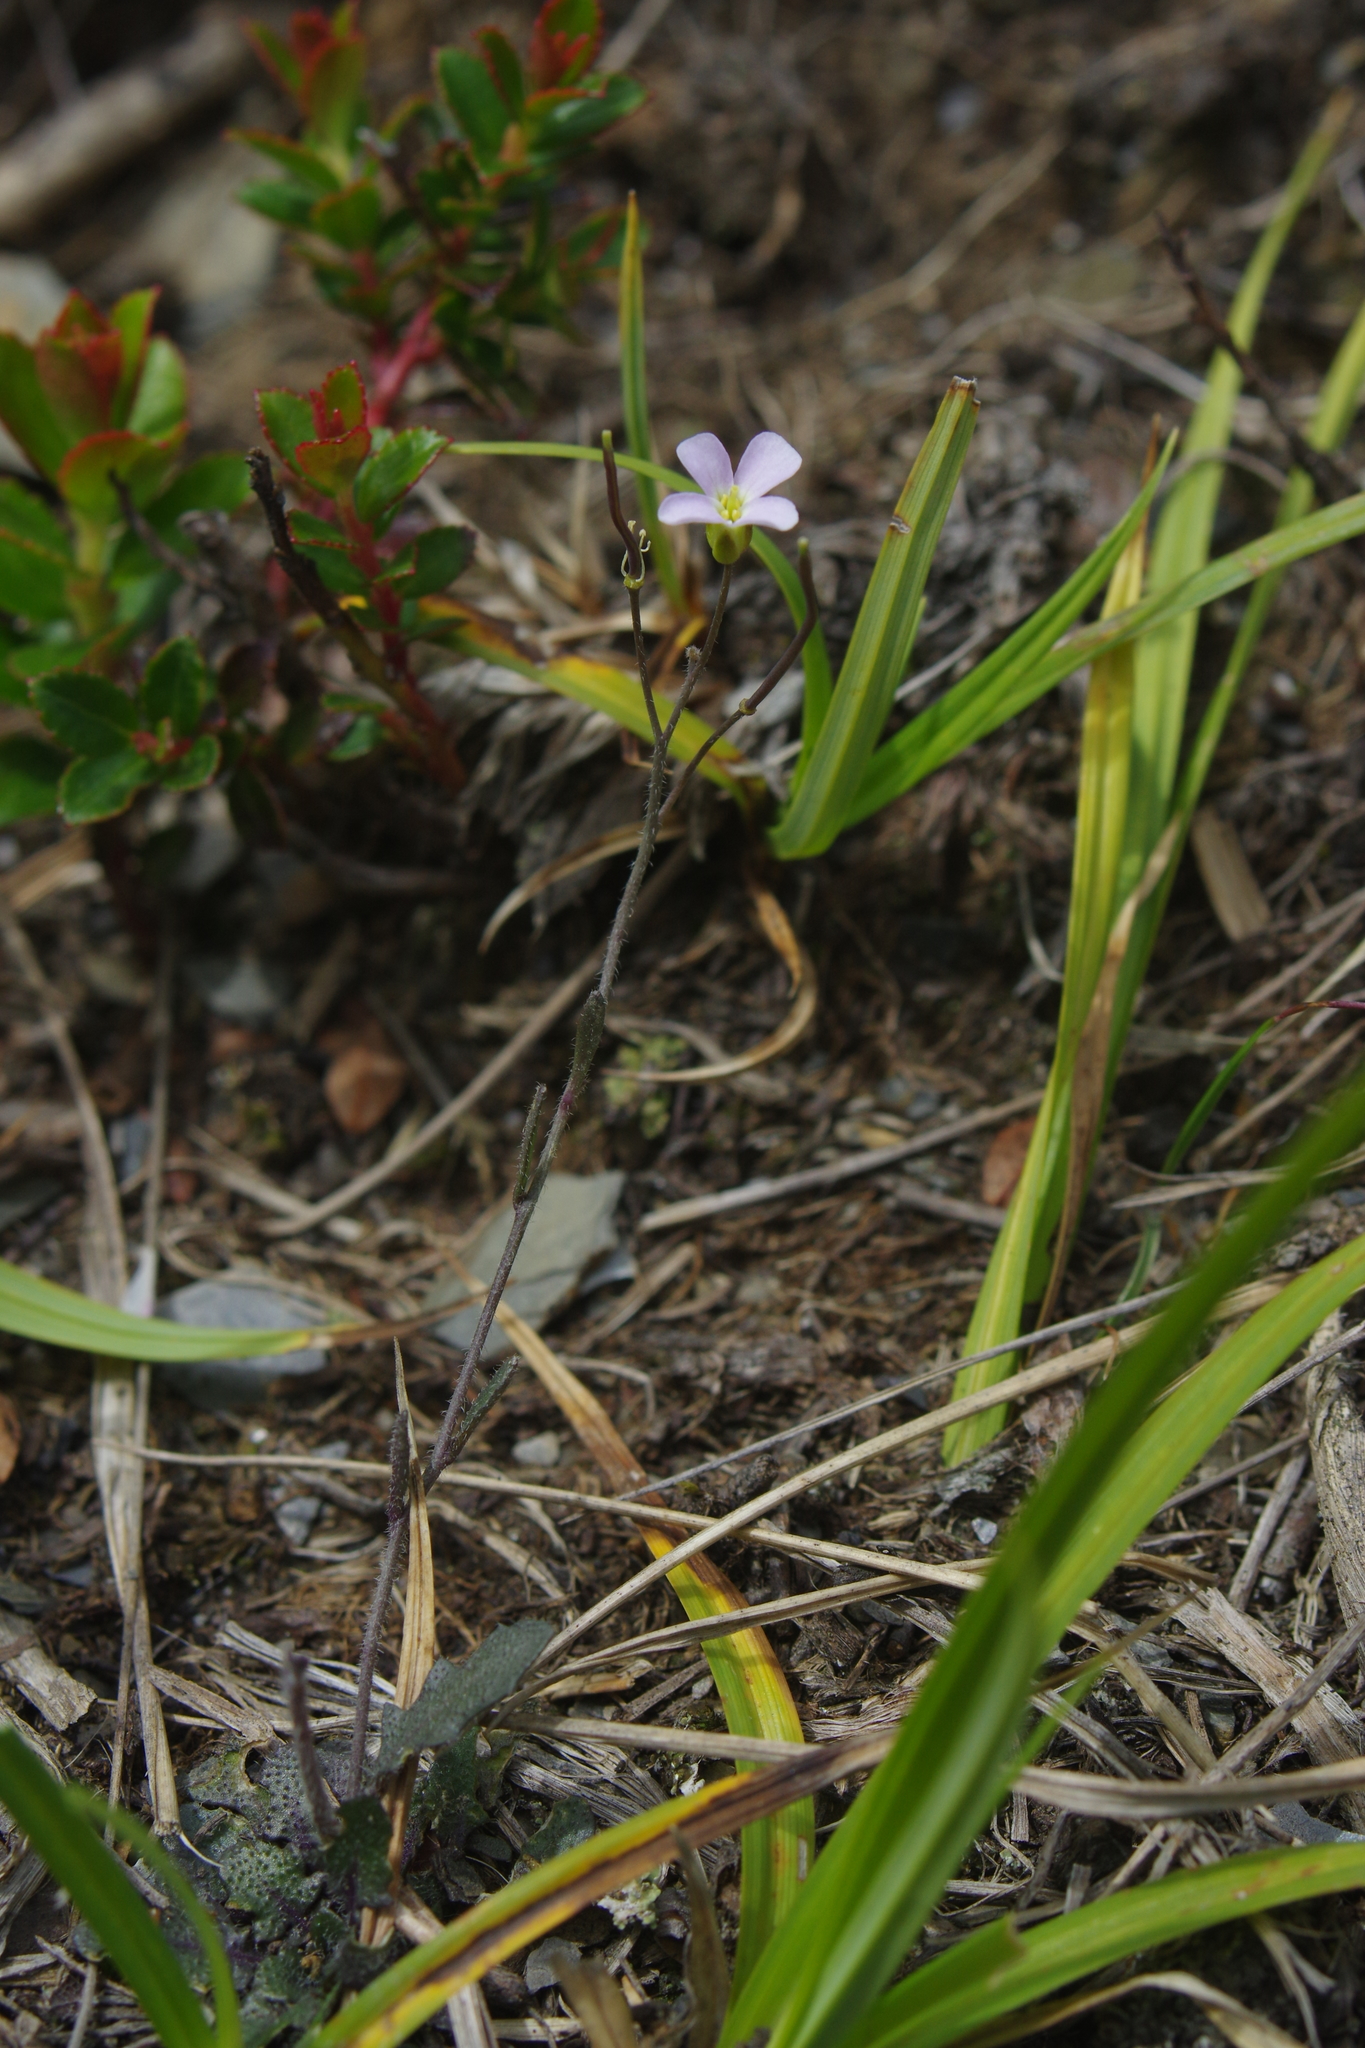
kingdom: Plantae
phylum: Tracheophyta
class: Magnoliopsida
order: Brassicales
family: Brassicaceae
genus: Arabidopsis
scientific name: Arabidopsis lyrata
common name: Lyrate rockcress
